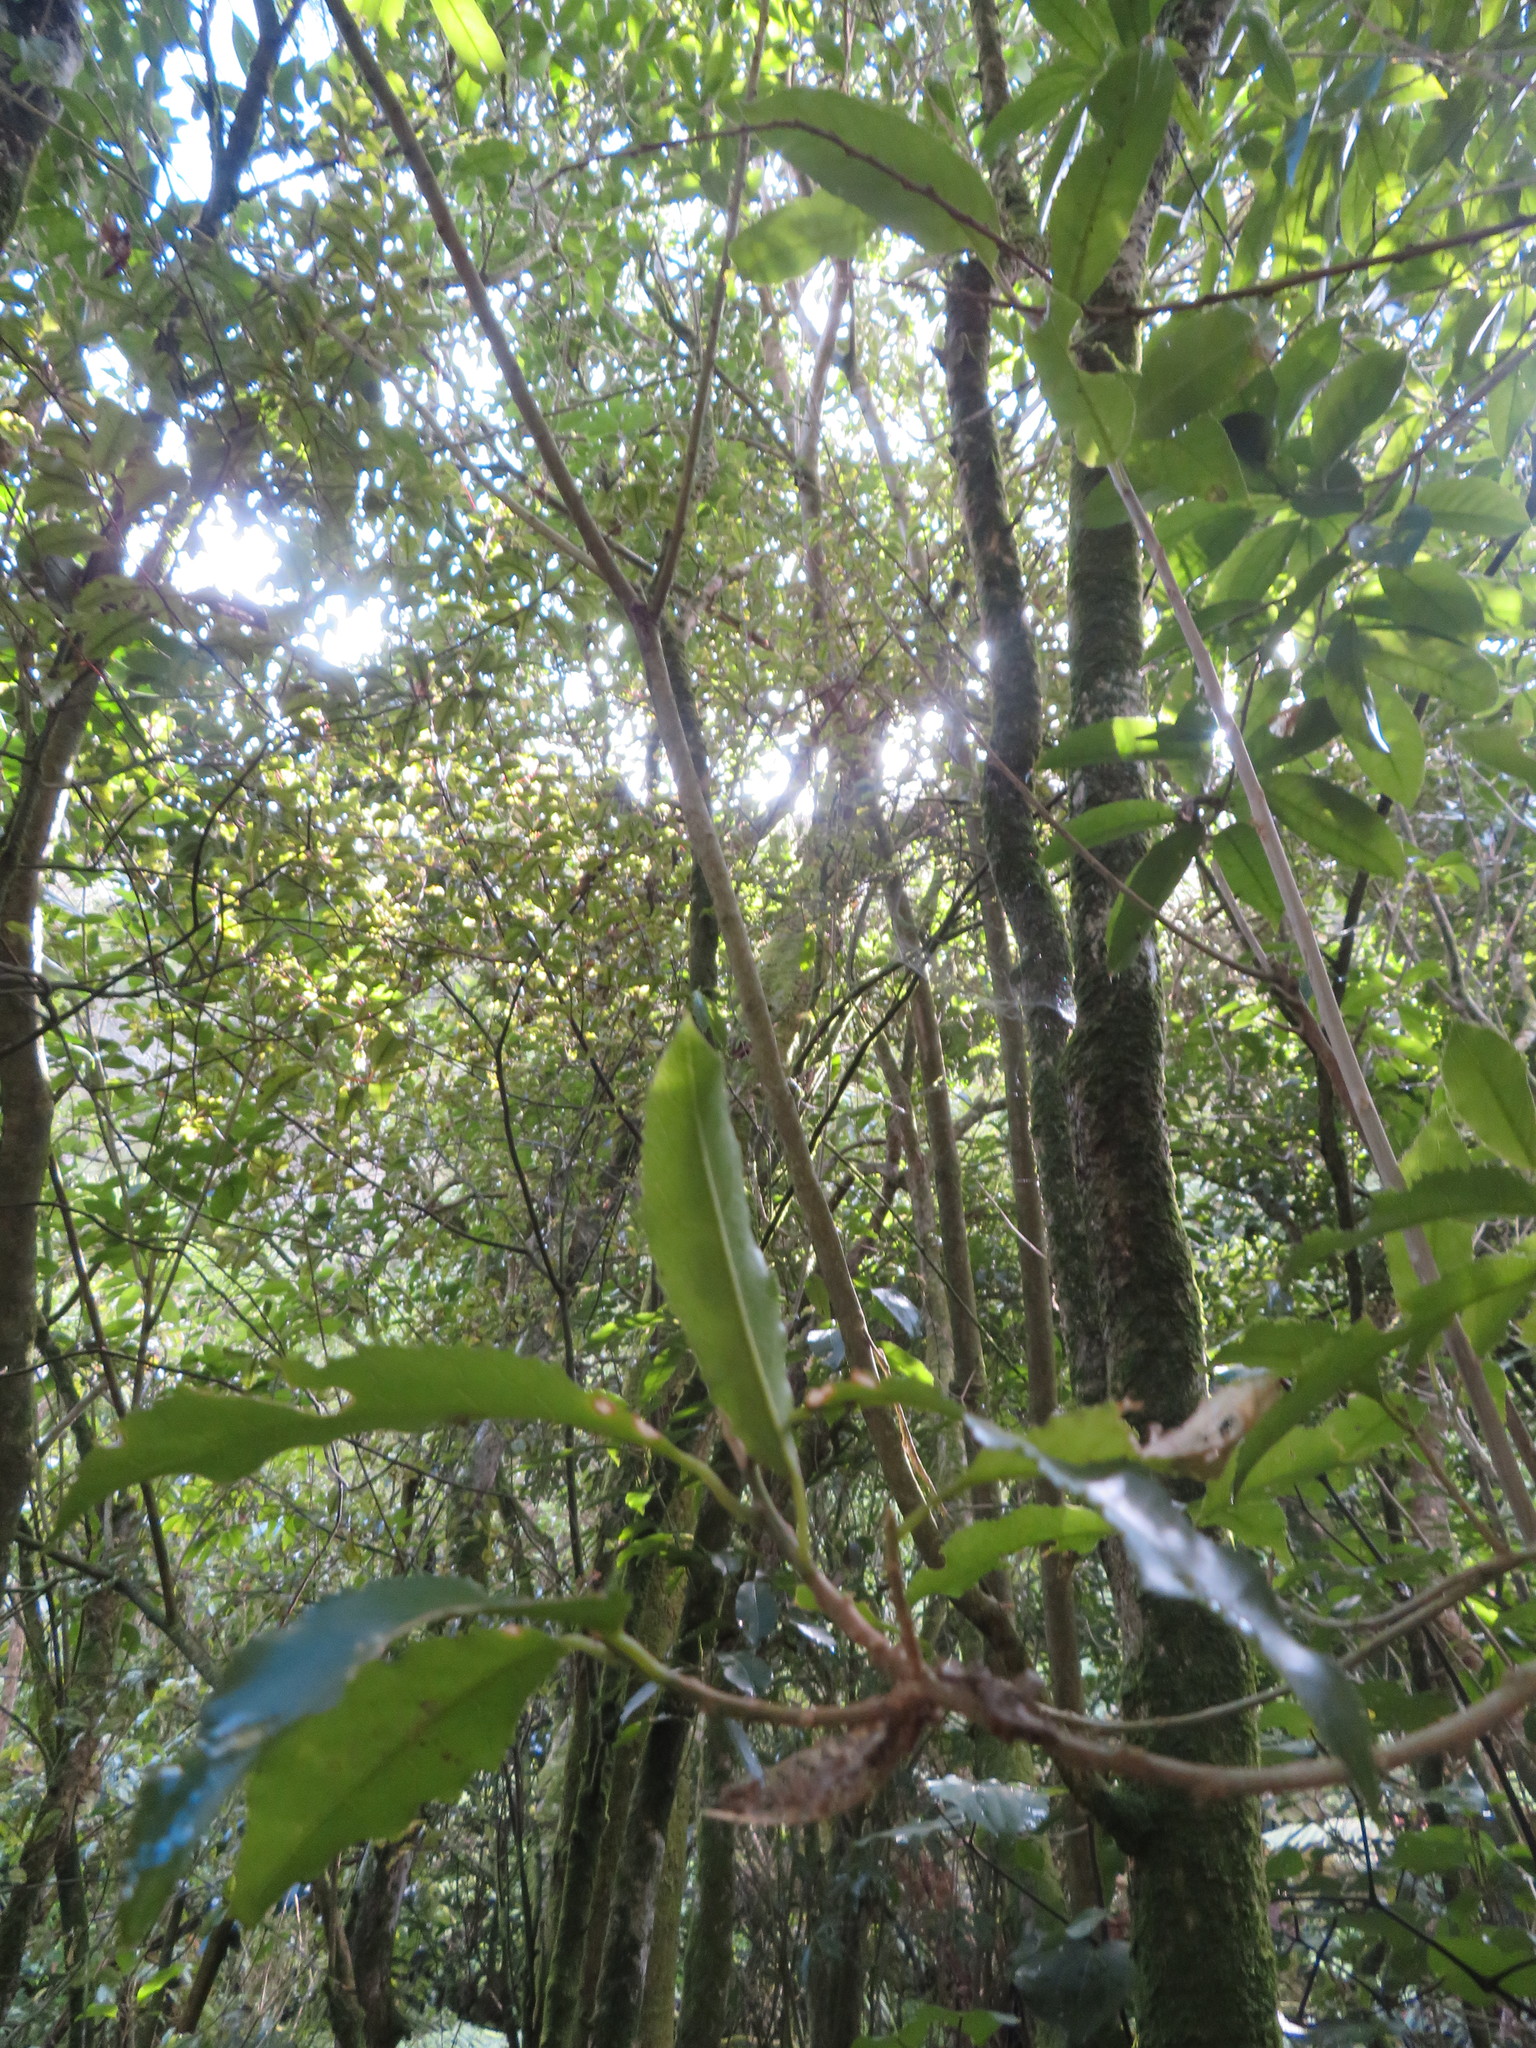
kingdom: Plantae
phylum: Tracheophyta
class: Magnoliopsida
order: Ericales
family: Primulaceae
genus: Myrsine
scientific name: Myrsine australis
